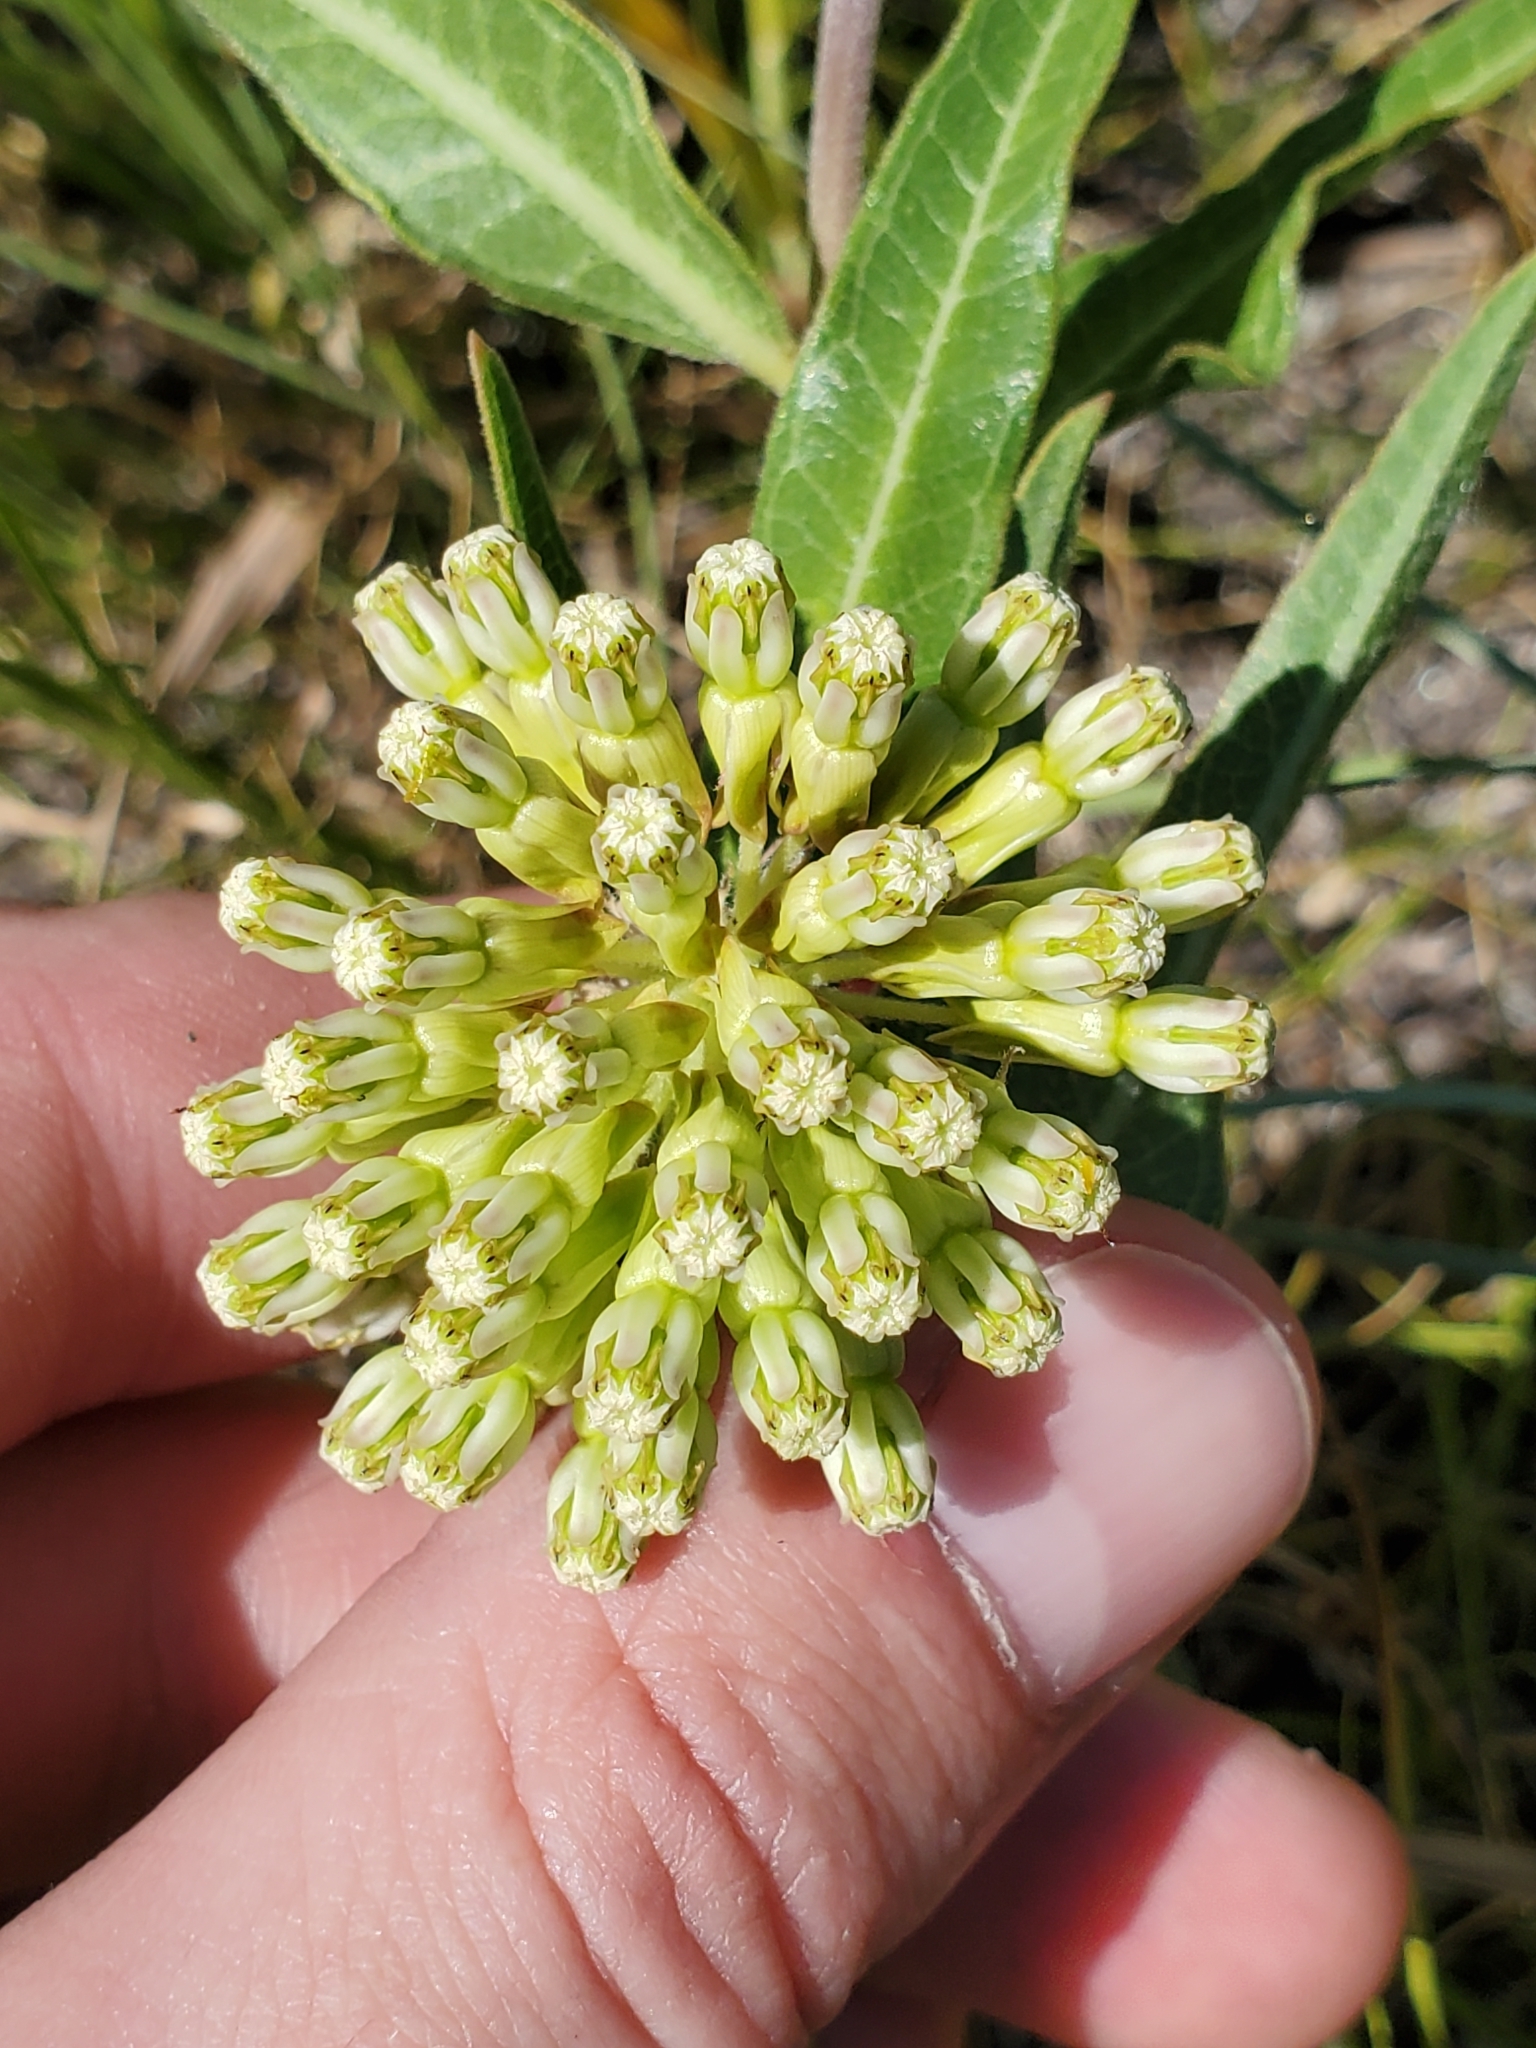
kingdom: Plantae
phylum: Tracheophyta
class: Magnoliopsida
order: Gentianales
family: Apocynaceae
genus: Asclepias
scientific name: Asclepias viridiflora
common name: Green comet milkweed
